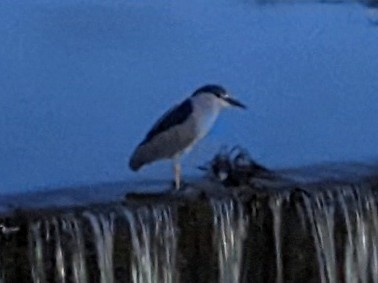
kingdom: Animalia
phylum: Chordata
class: Aves
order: Pelecaniformes
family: Ardeidae
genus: Nycticorax
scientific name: Nycticorax nycticorax
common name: Black-crowned night heron
